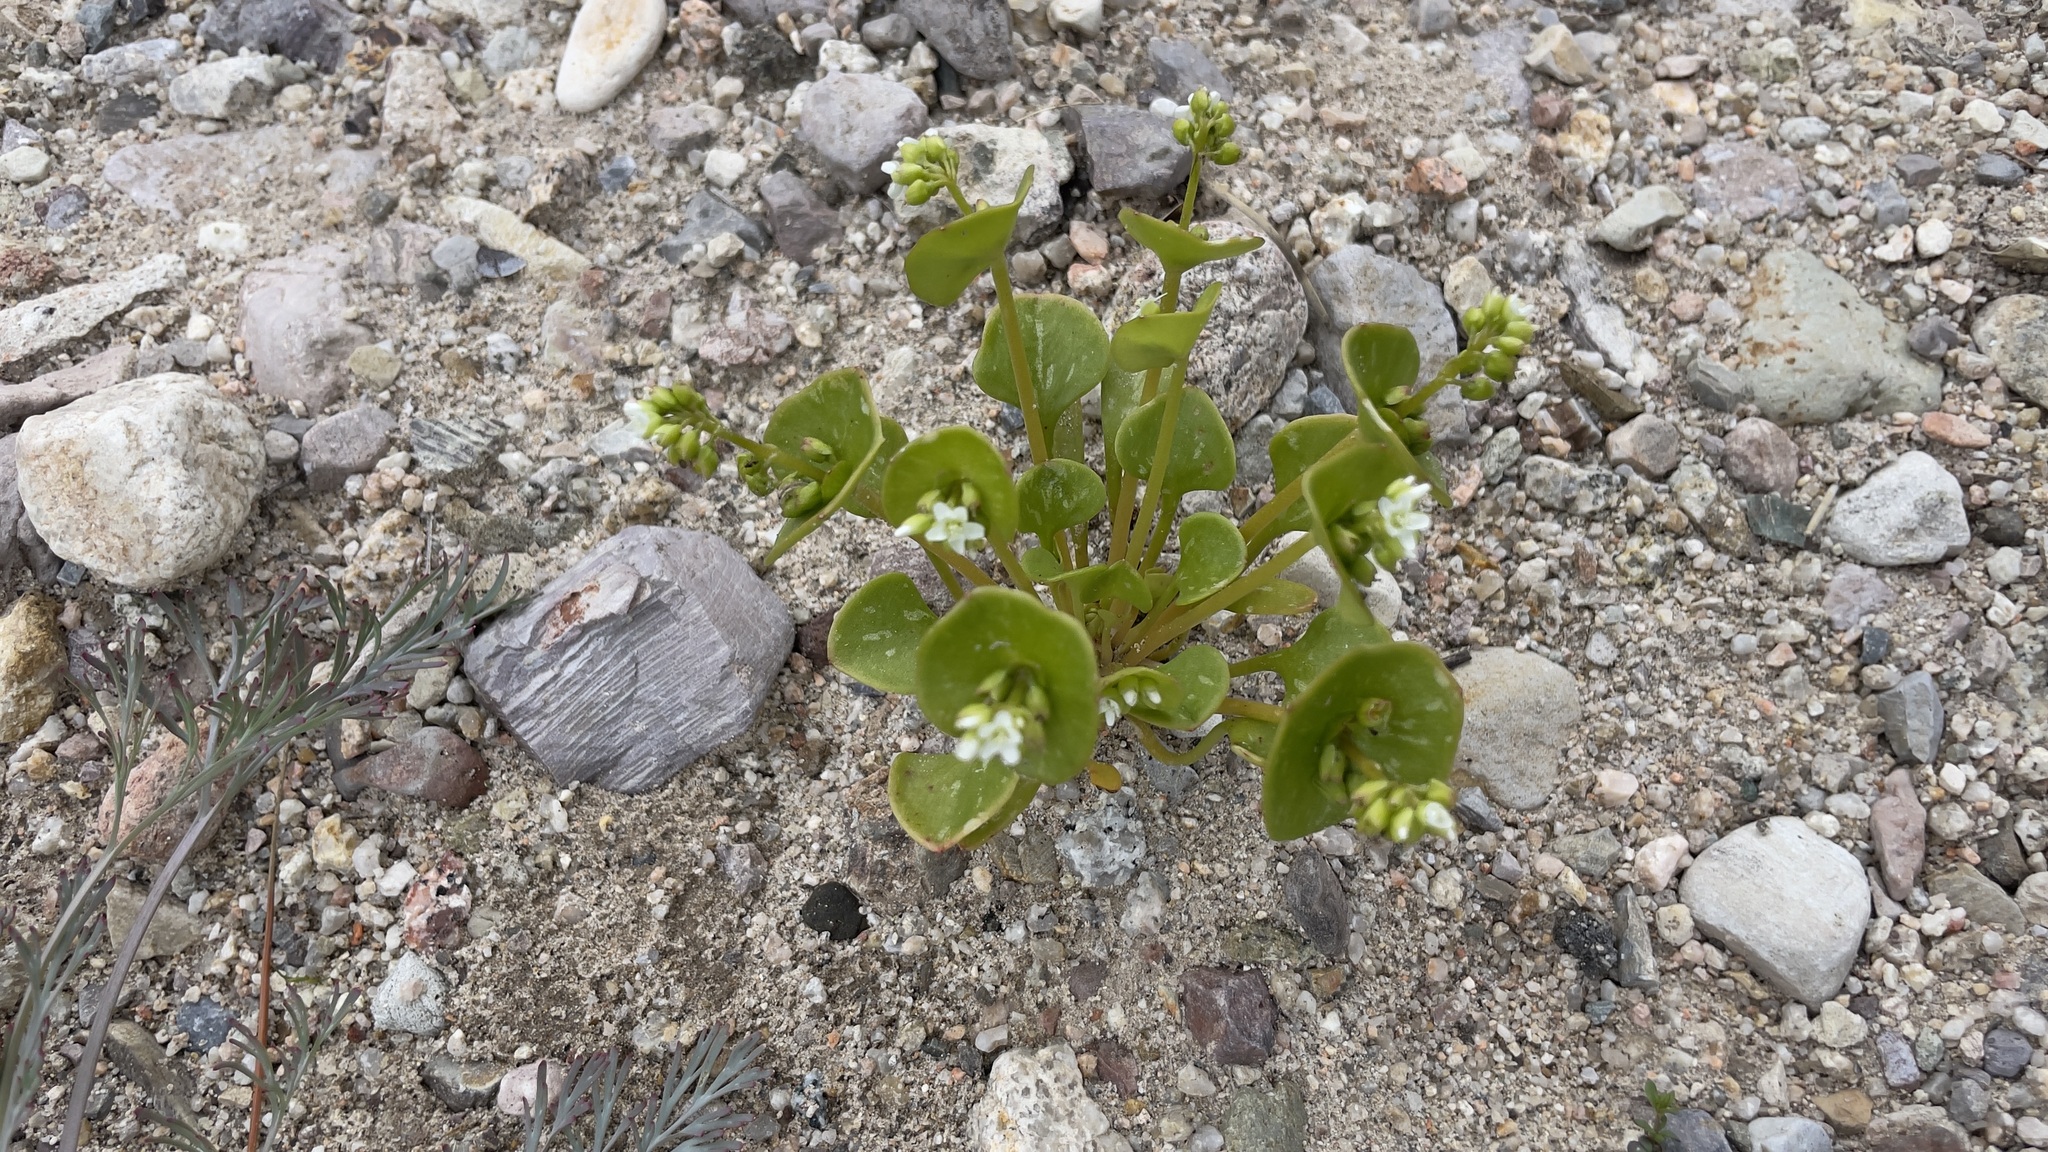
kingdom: Plantae
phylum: Tracheophyta
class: Magnoliopsida
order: Caryophyllales
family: Montiaceae
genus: Claytonia
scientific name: Claytonia perfoliata
